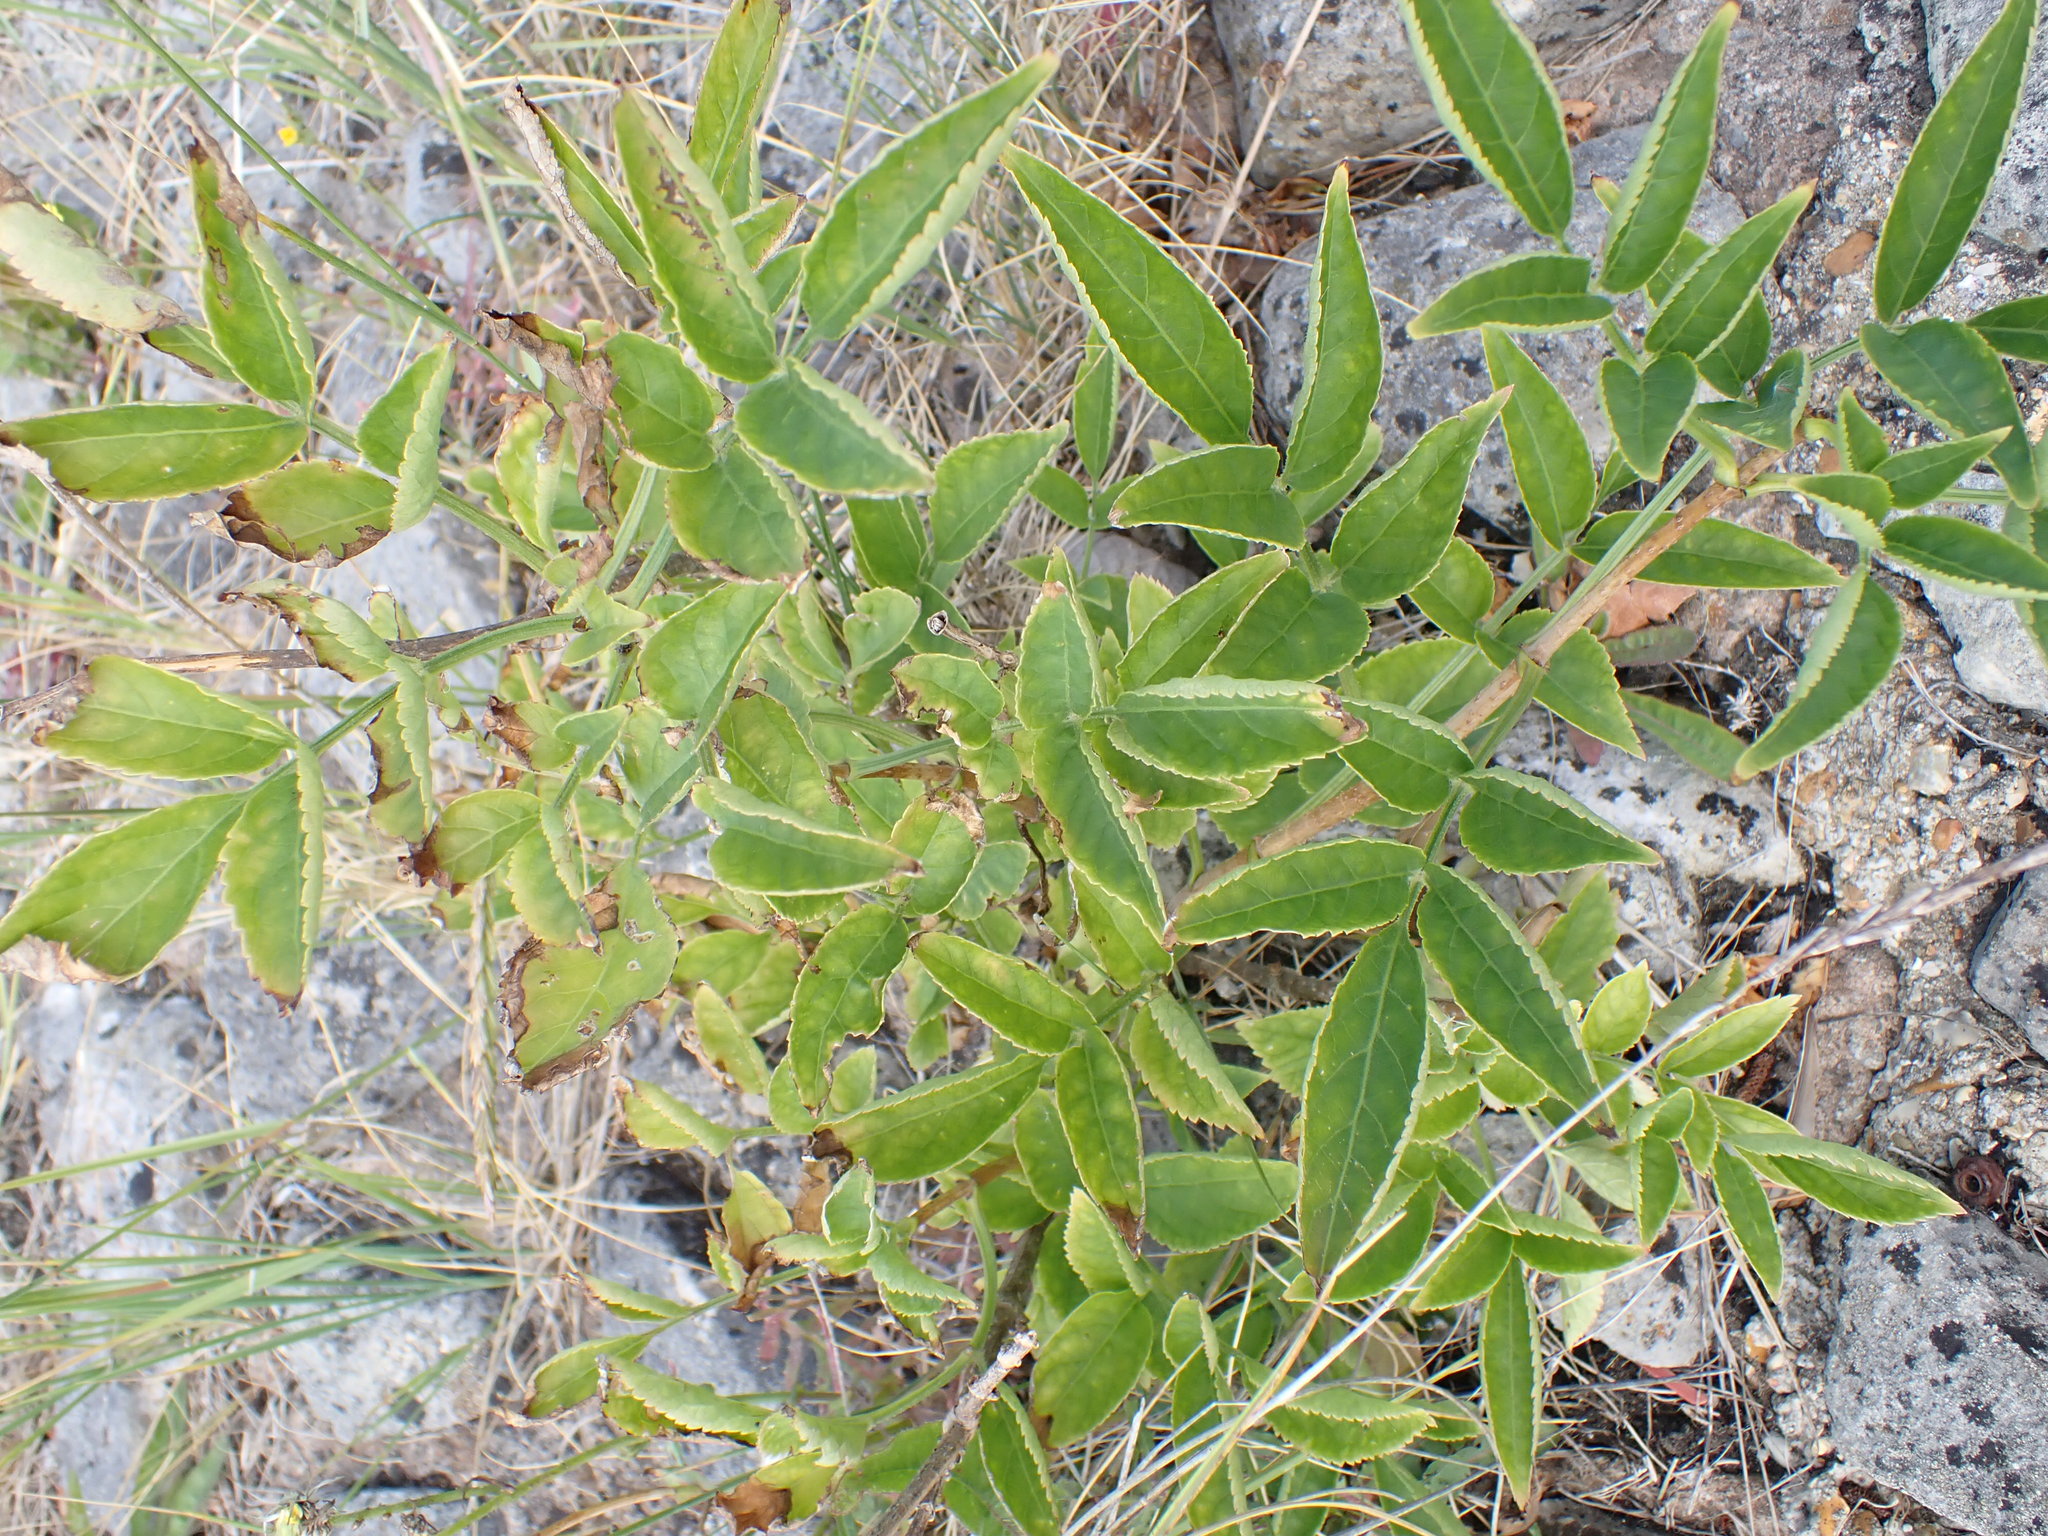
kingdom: Plantae
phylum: Tracheophyta
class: Magnoliopsida
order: Dipsacales
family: Viburnaceae
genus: Sambucus
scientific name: Sambucus nigra
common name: Elder
